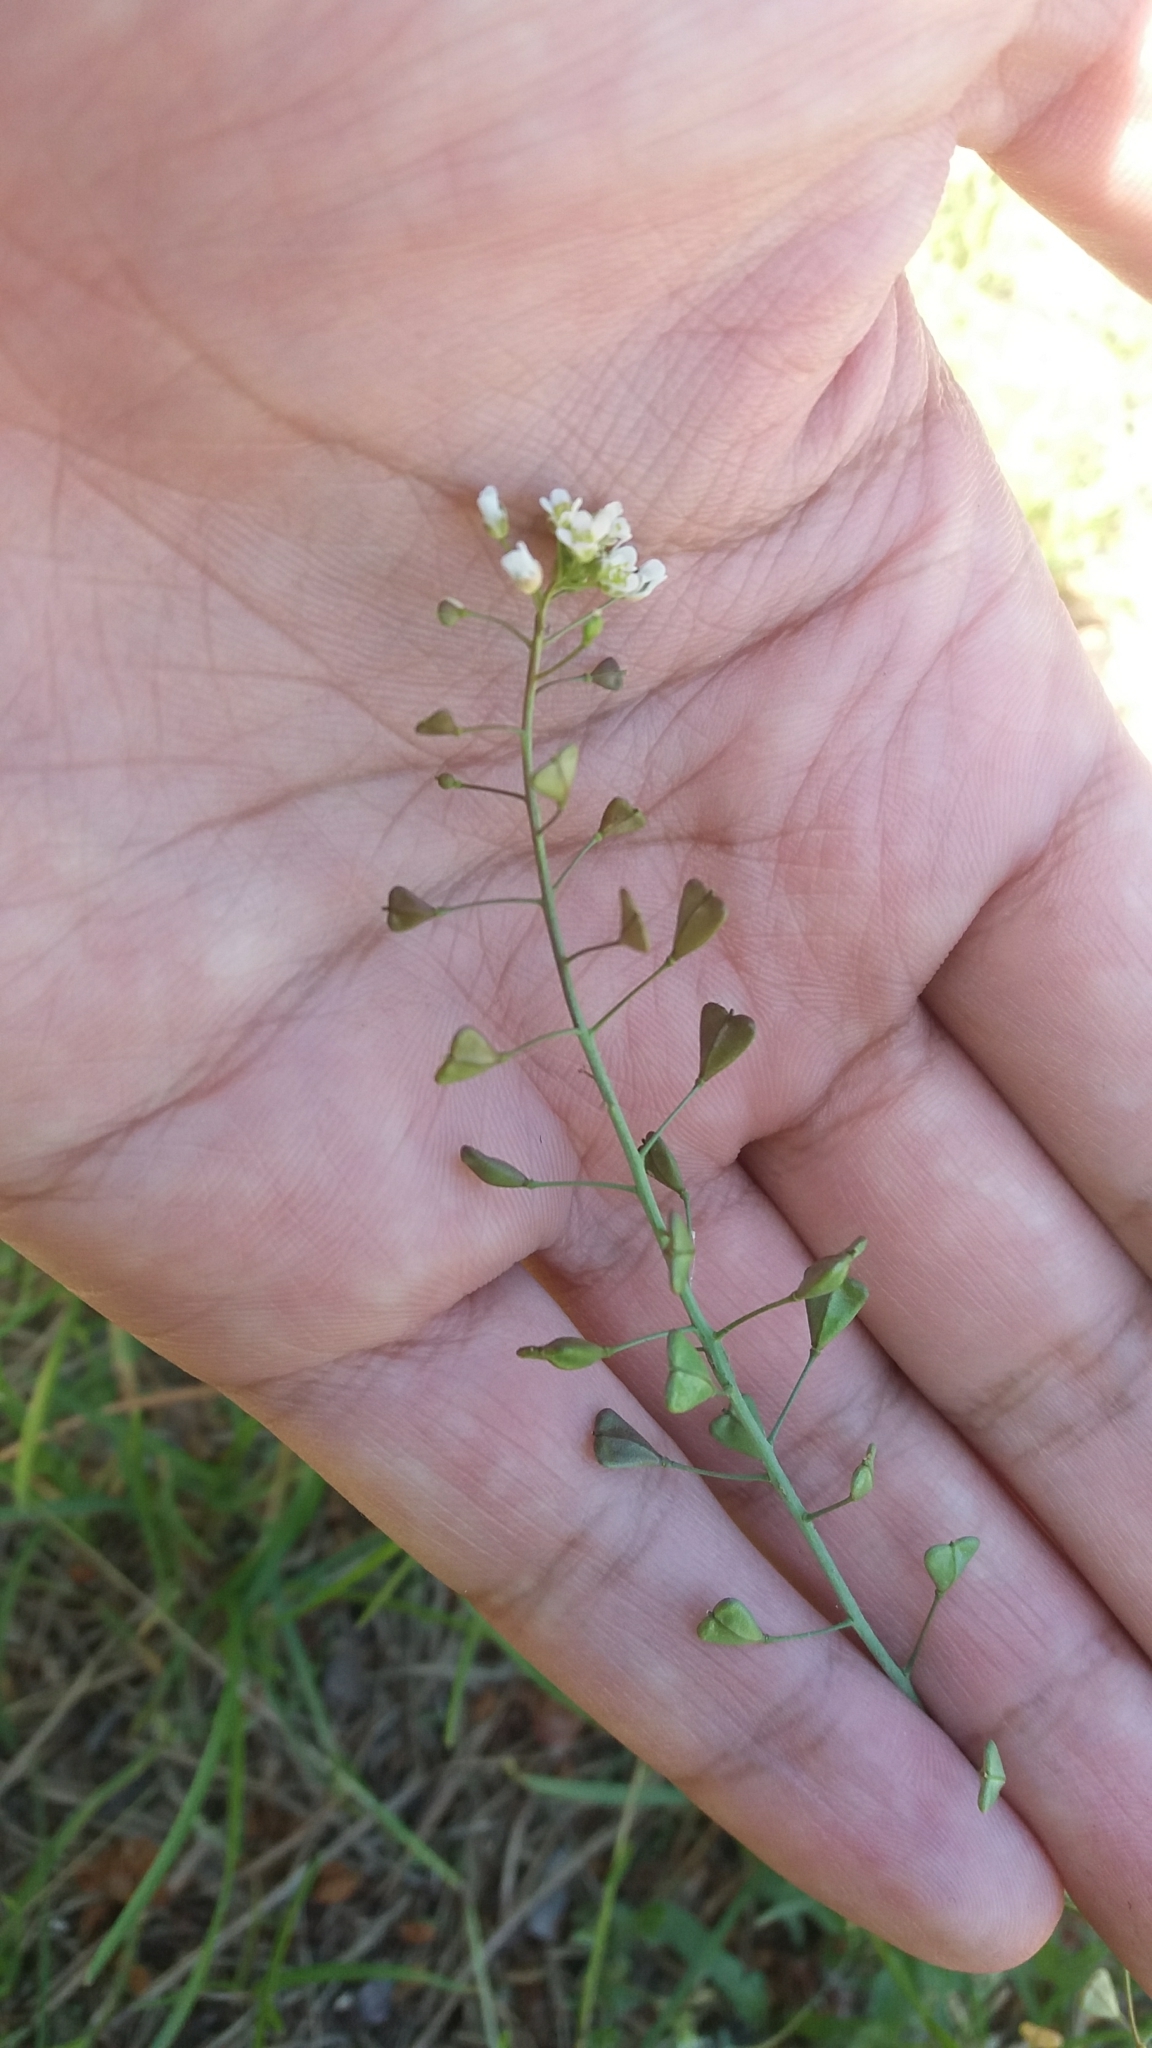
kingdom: Plantae
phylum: Tracheophyta
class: Magnoliopsida
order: Brassicales
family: Brassicaceae
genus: Capsella
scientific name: Capsella bursa-pastoris
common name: Shepherd's purse
